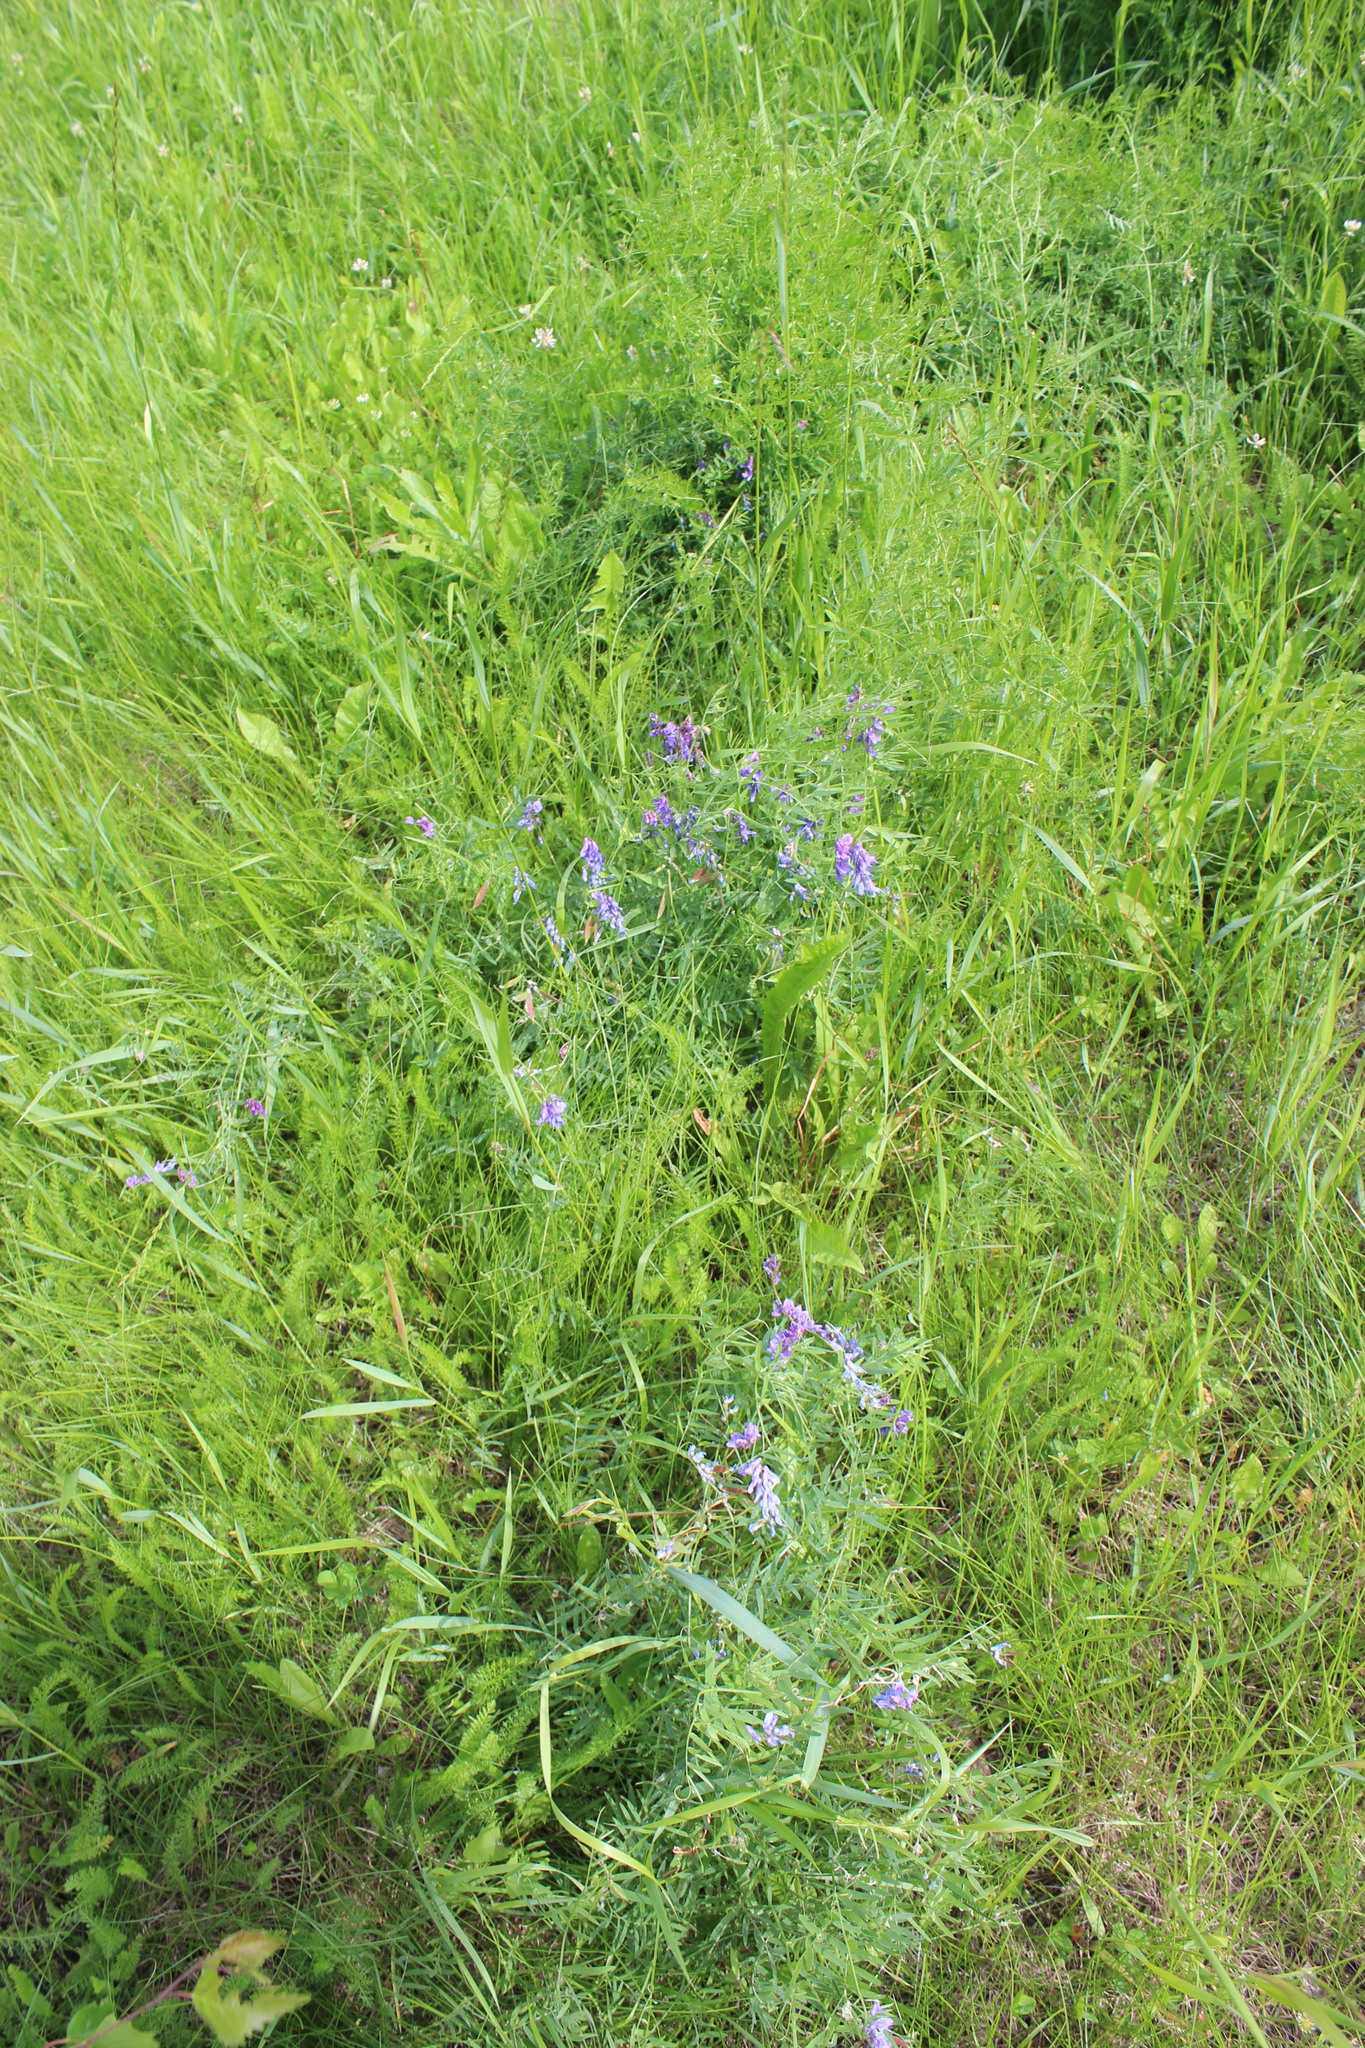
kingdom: Plantae
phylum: Tracheophyta
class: Magnoliopsida
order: Fabales
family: Fabaceae
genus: Vicia
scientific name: Vicia cracca
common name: Bird vetch
